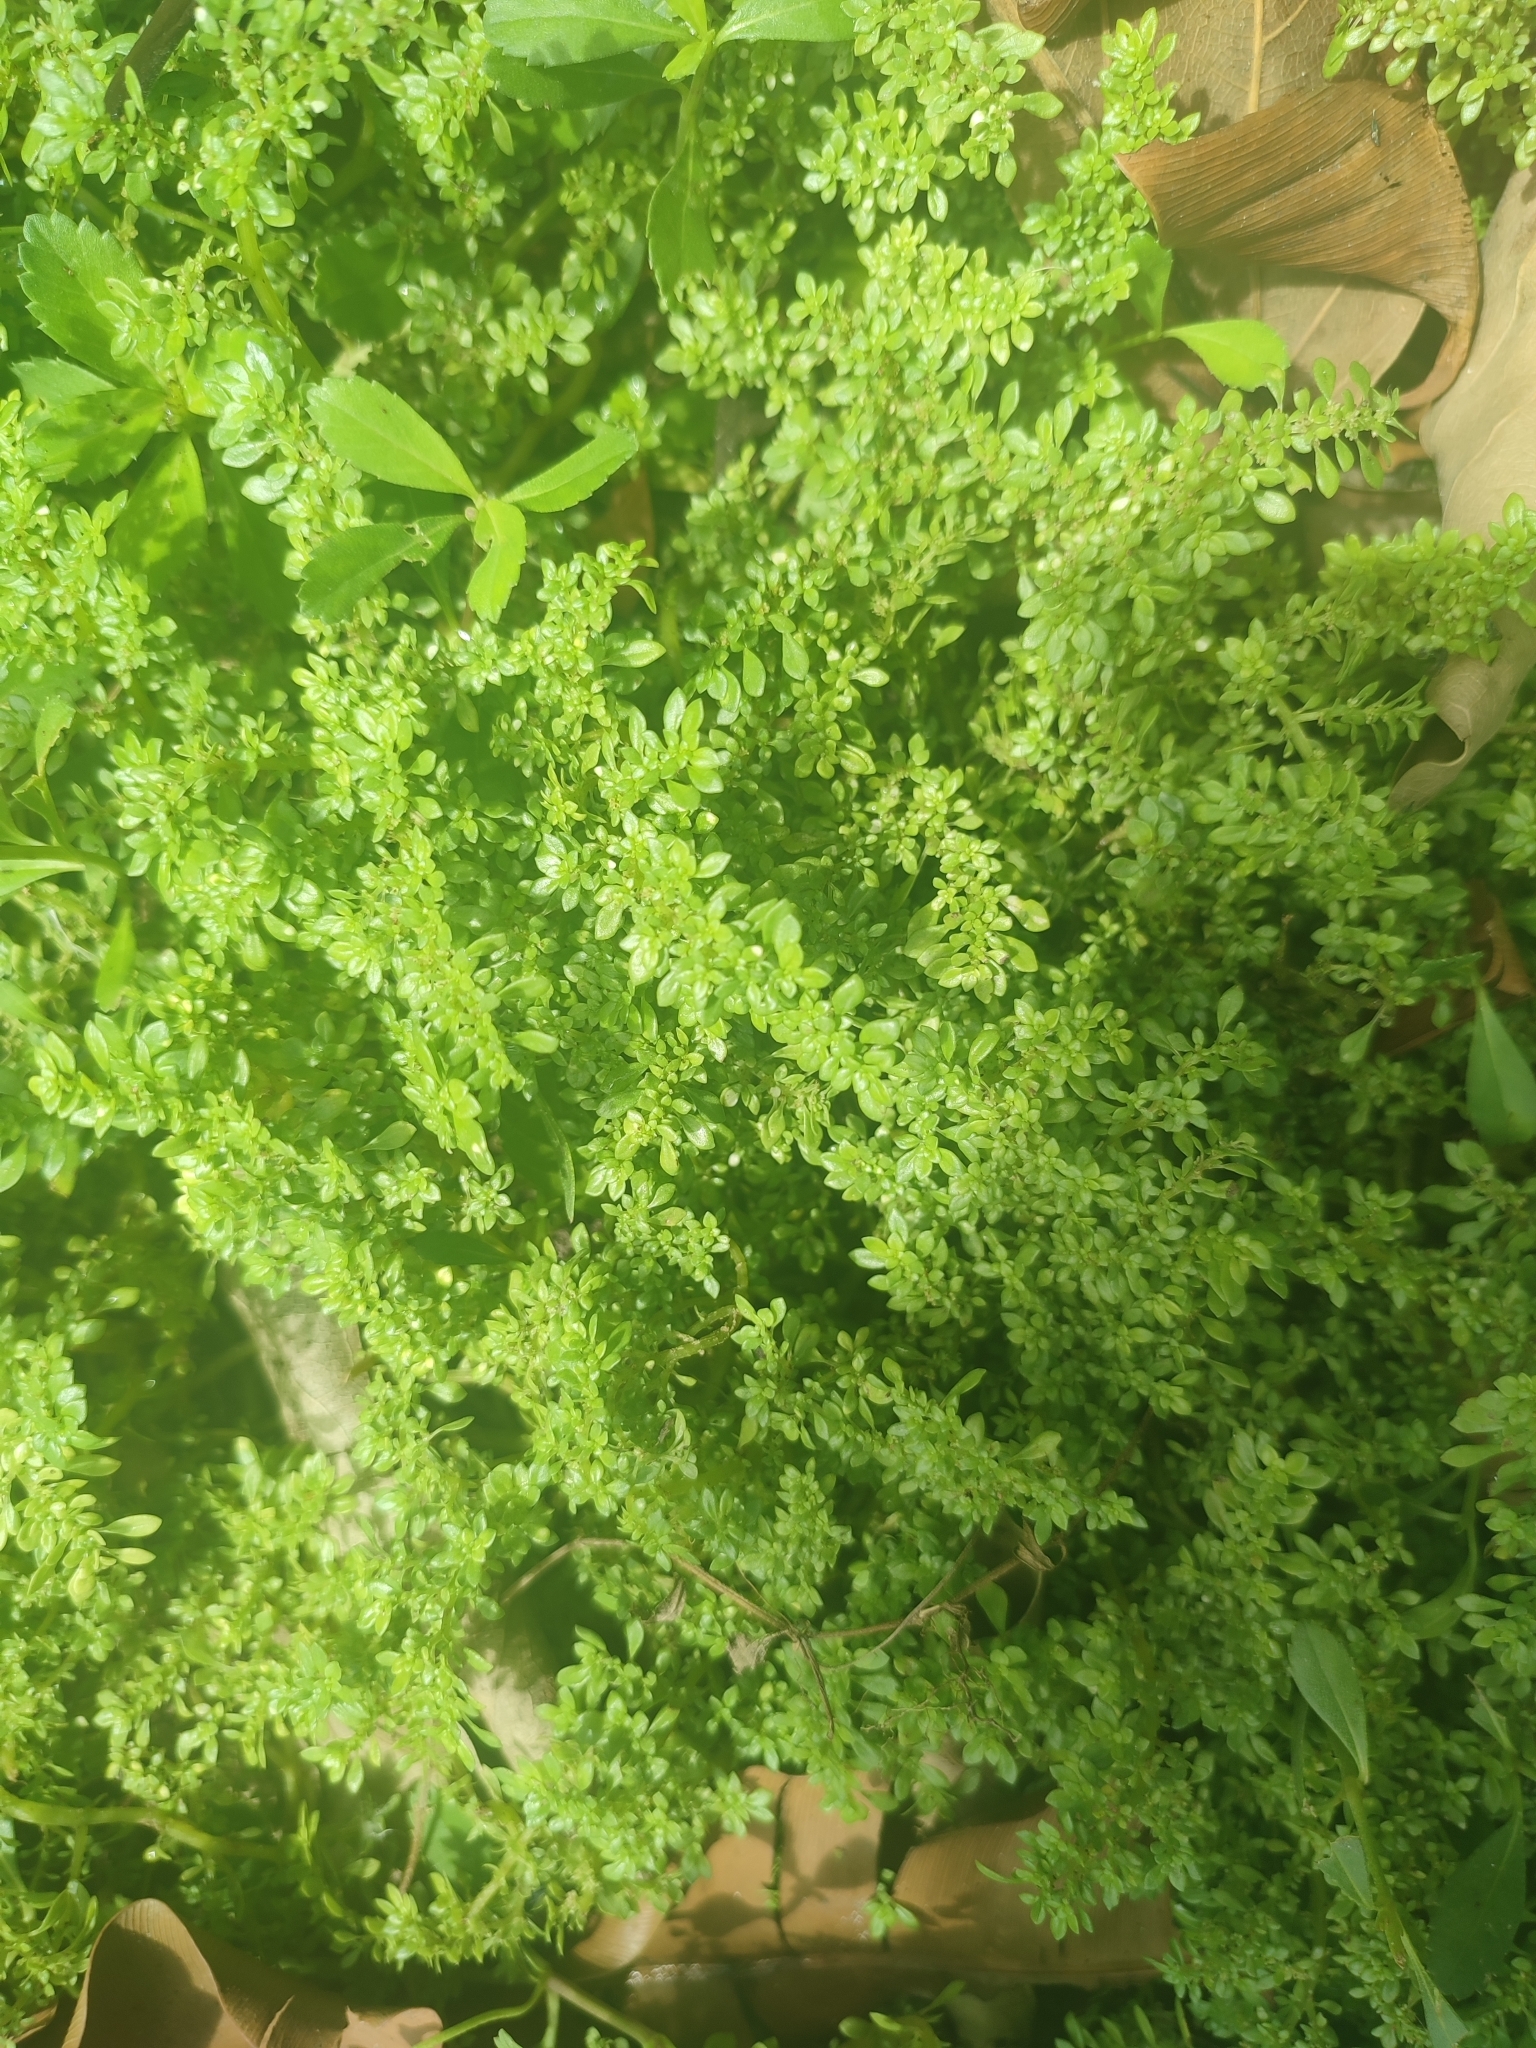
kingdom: Plantae
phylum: Tracheophyta
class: Magnoliopsida
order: Rosales
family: Urticaceae
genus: Pilea
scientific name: Pilea microphylla
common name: Artillery-plant
